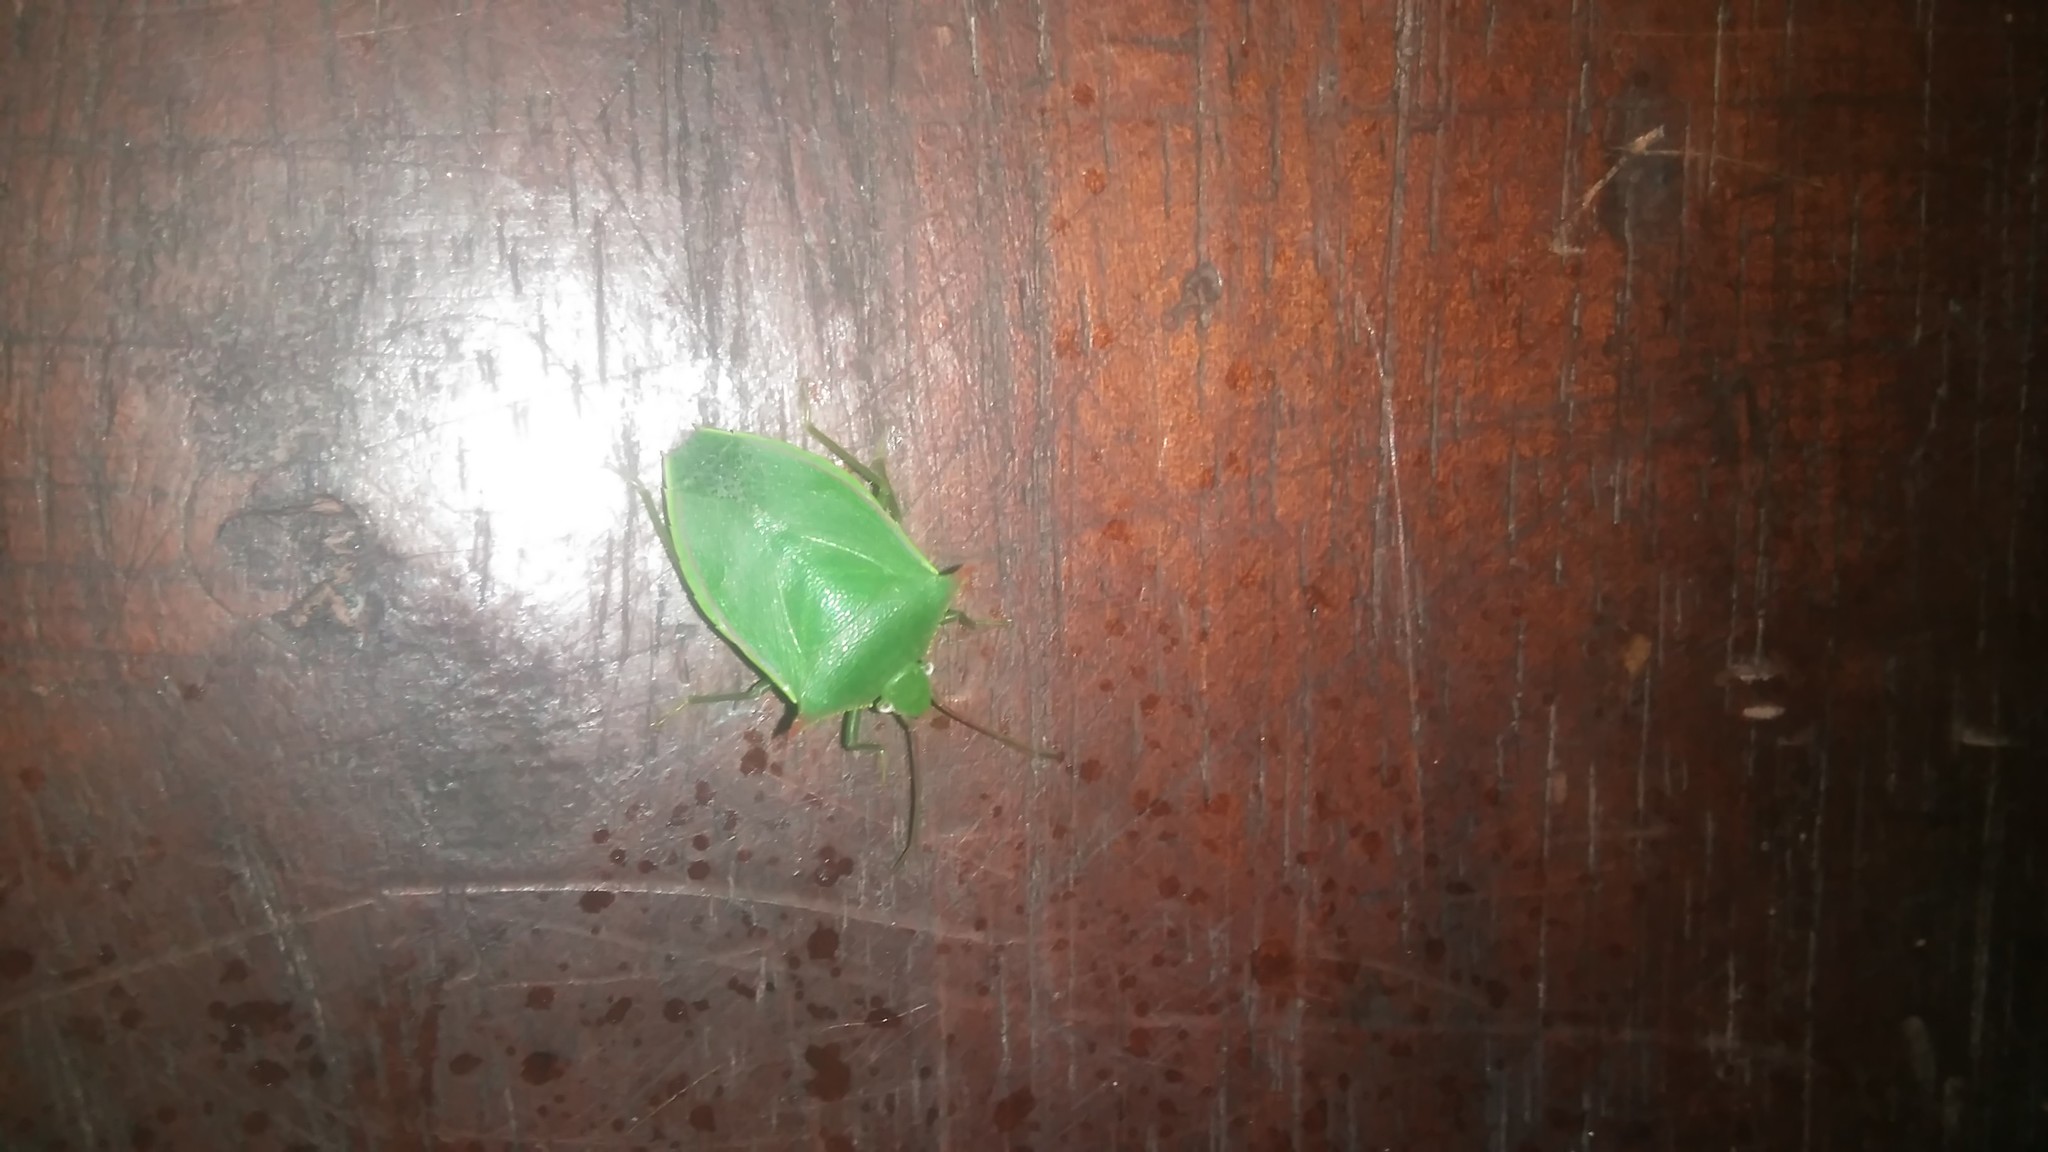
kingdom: Animalia
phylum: Arthropoda
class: Insecta
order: Hemiptera
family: Pentatomidae
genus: Loxa
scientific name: Loxa deducta
